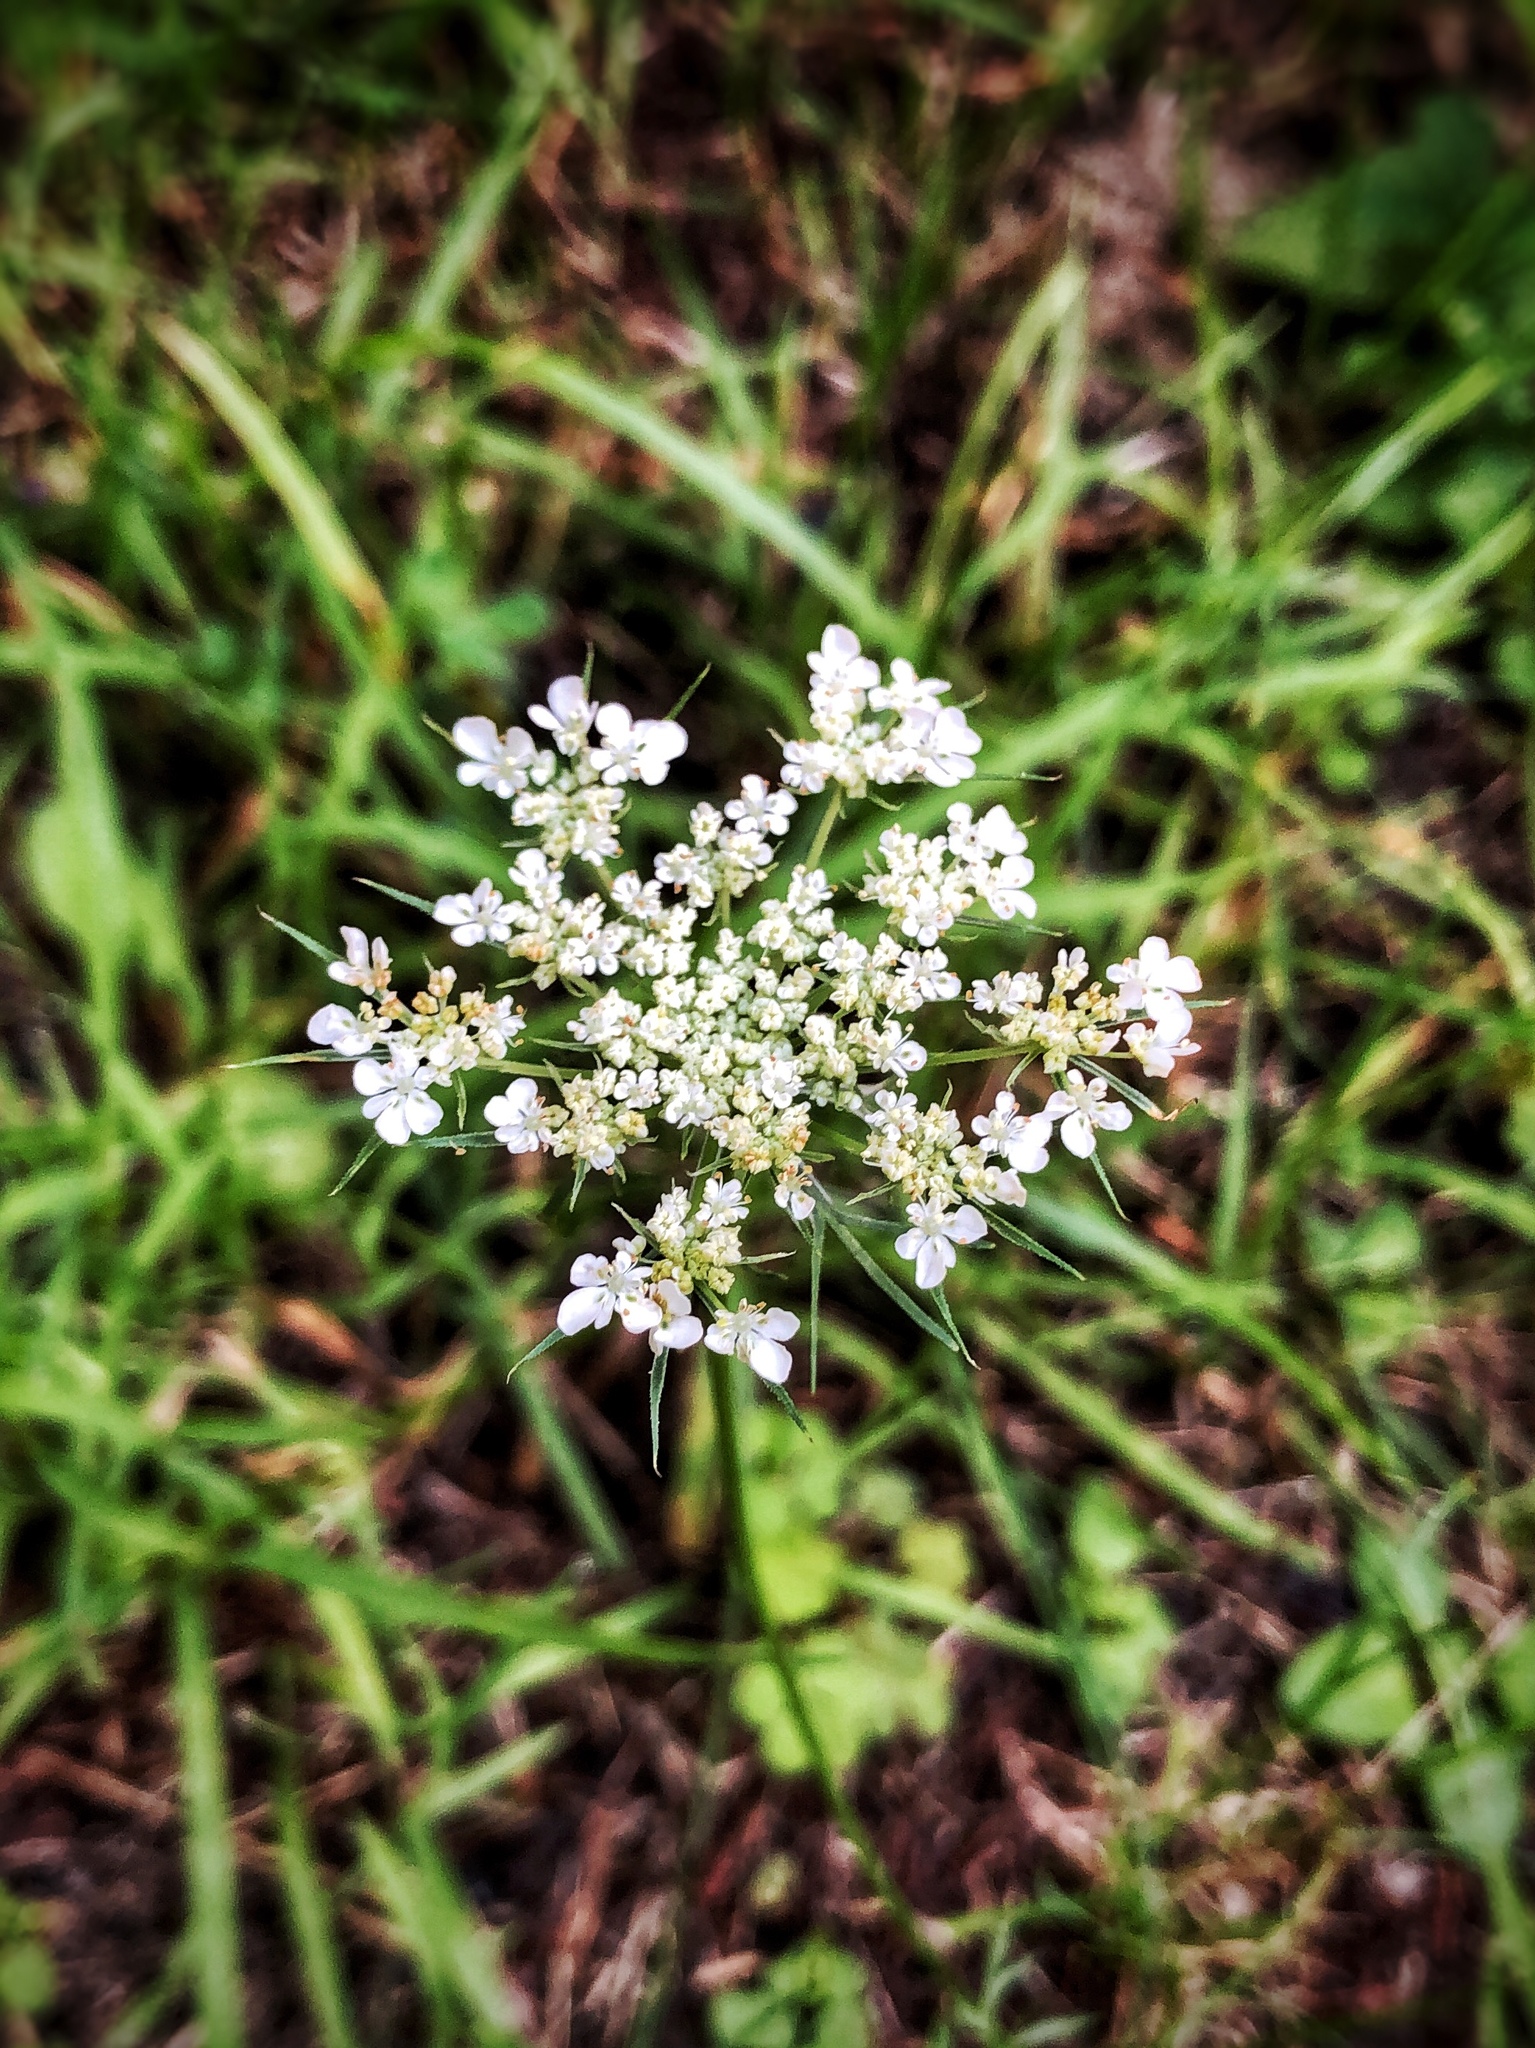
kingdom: Plantae
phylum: Tracheophyta
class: Magnoliopsida
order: Apiales
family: Apiaceae
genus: Daucus
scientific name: Daucus carota
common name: Wild carrot
